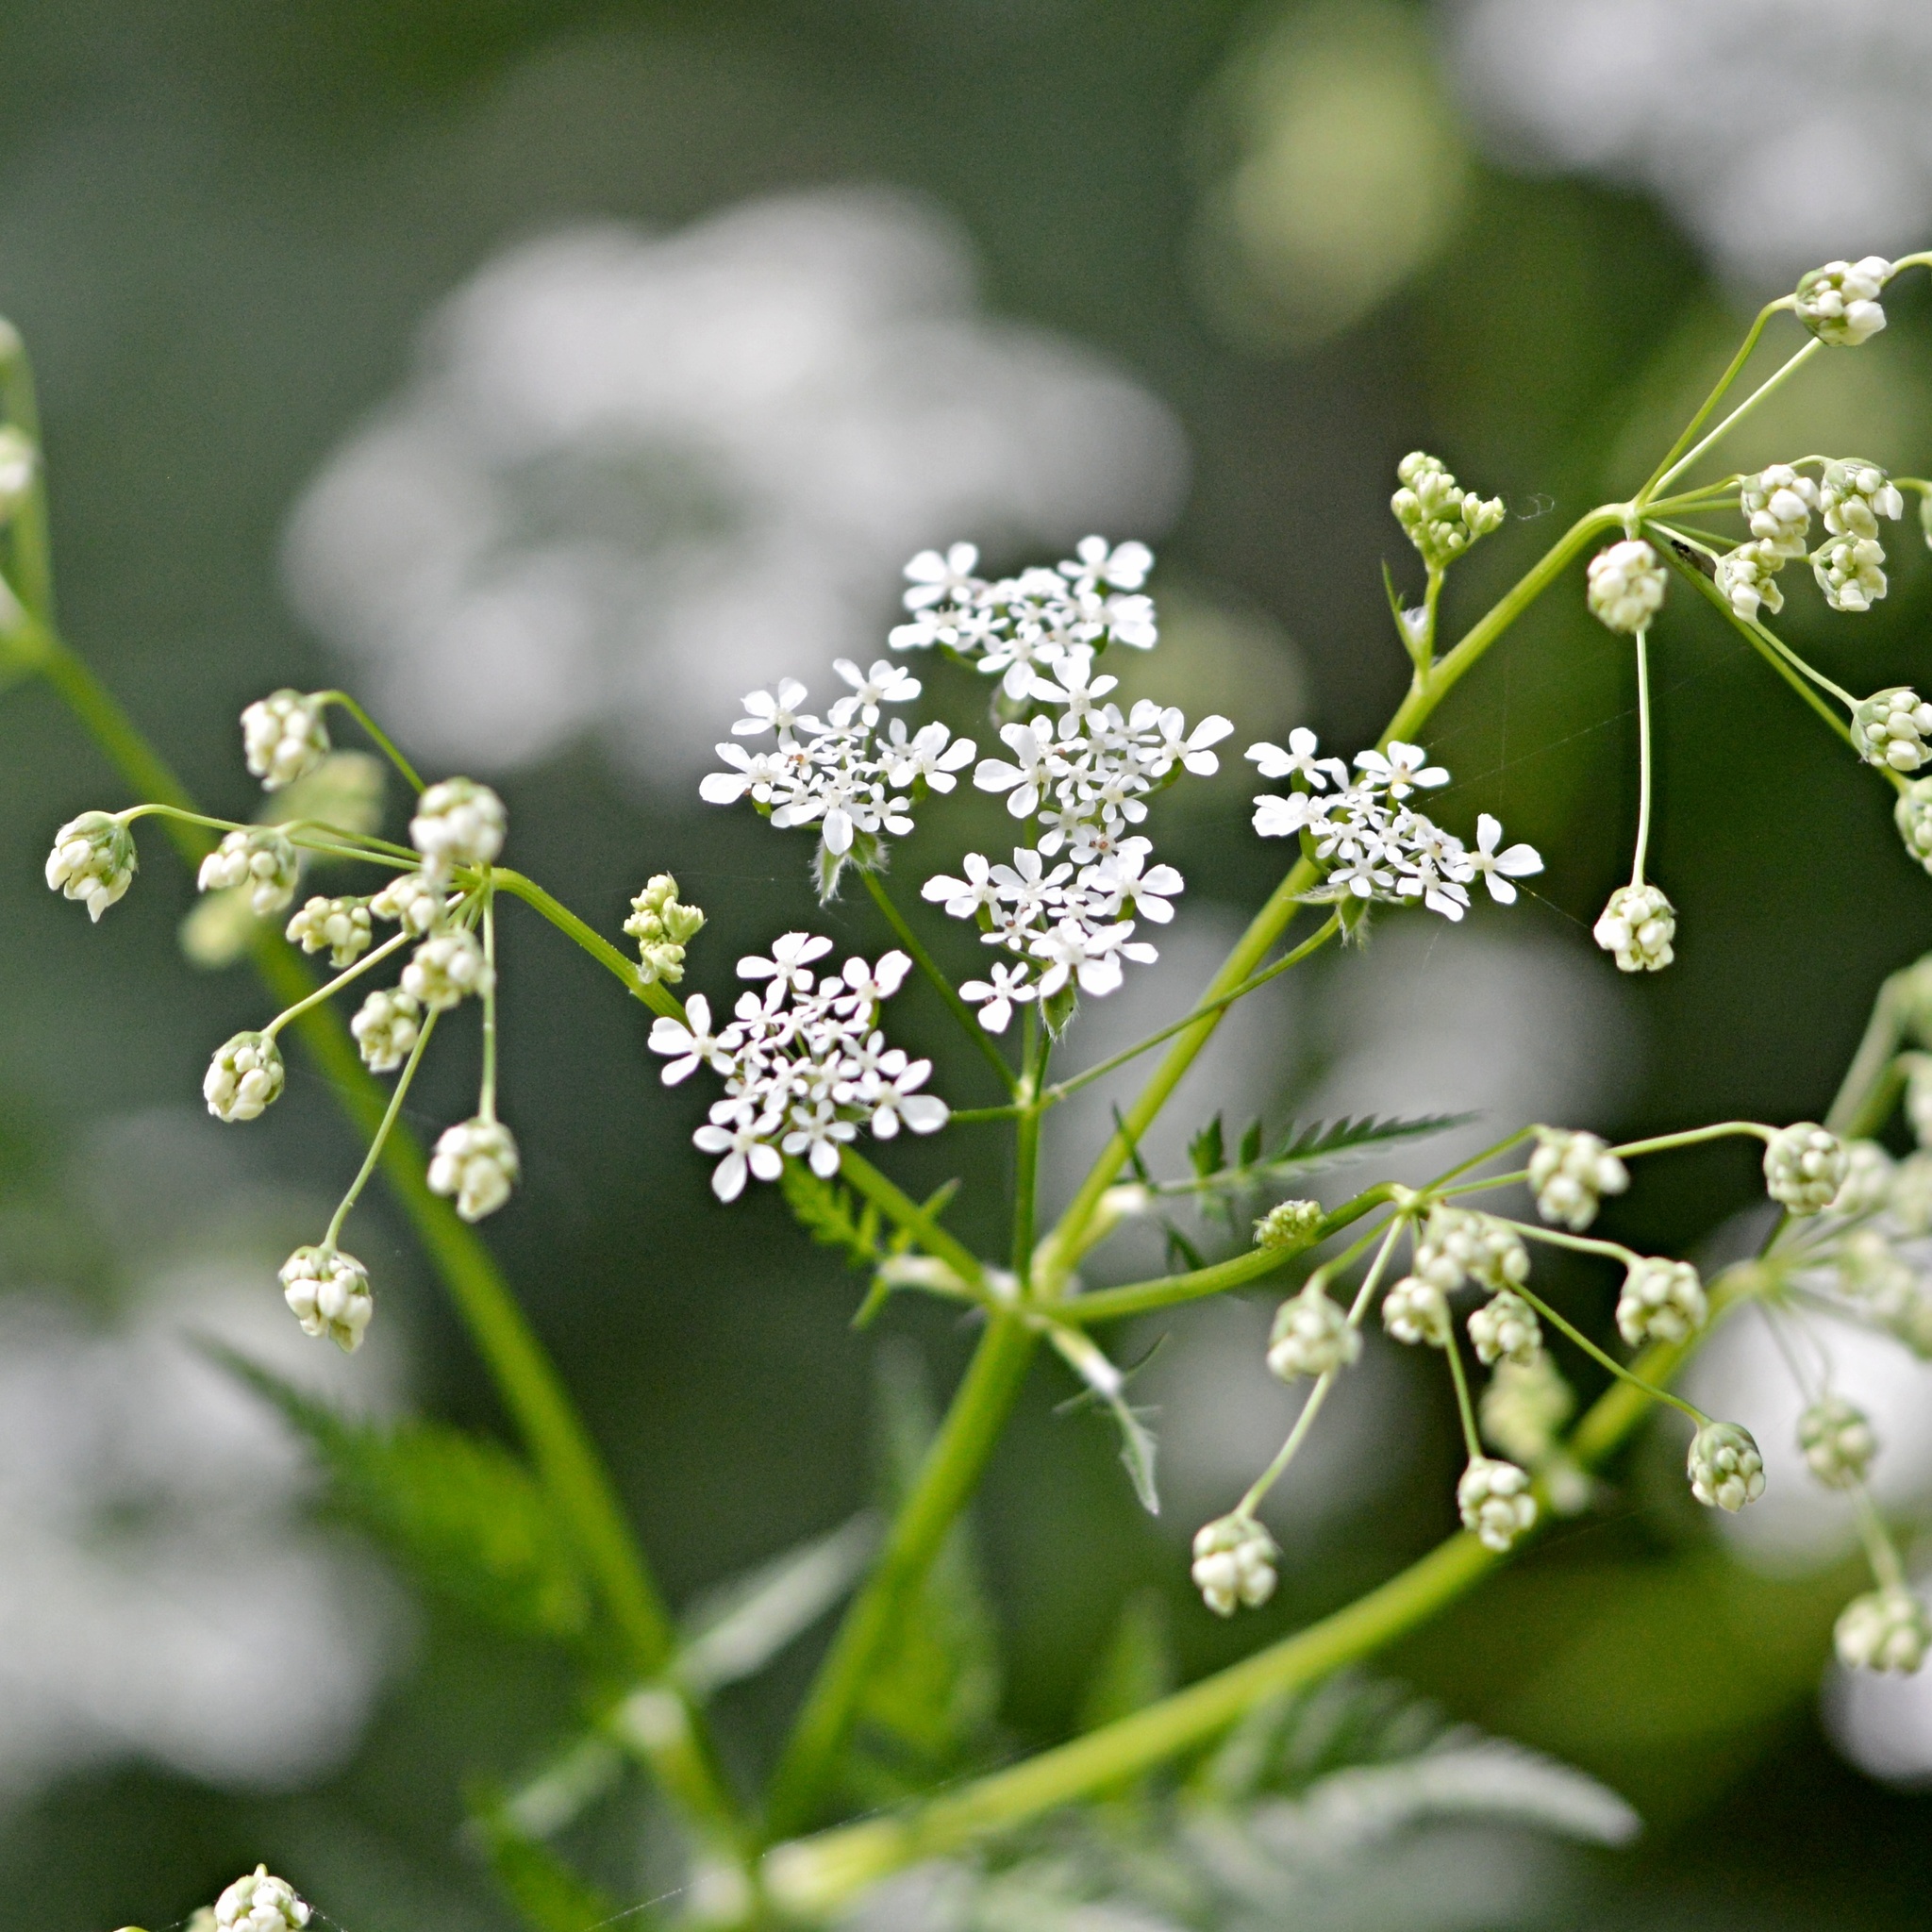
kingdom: Plantae
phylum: Tracheophyta
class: Magnoliopsida
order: Apiales
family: Apiaceae
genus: Anthriscus
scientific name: Anthriscus sylvestris
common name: Cow parsley
